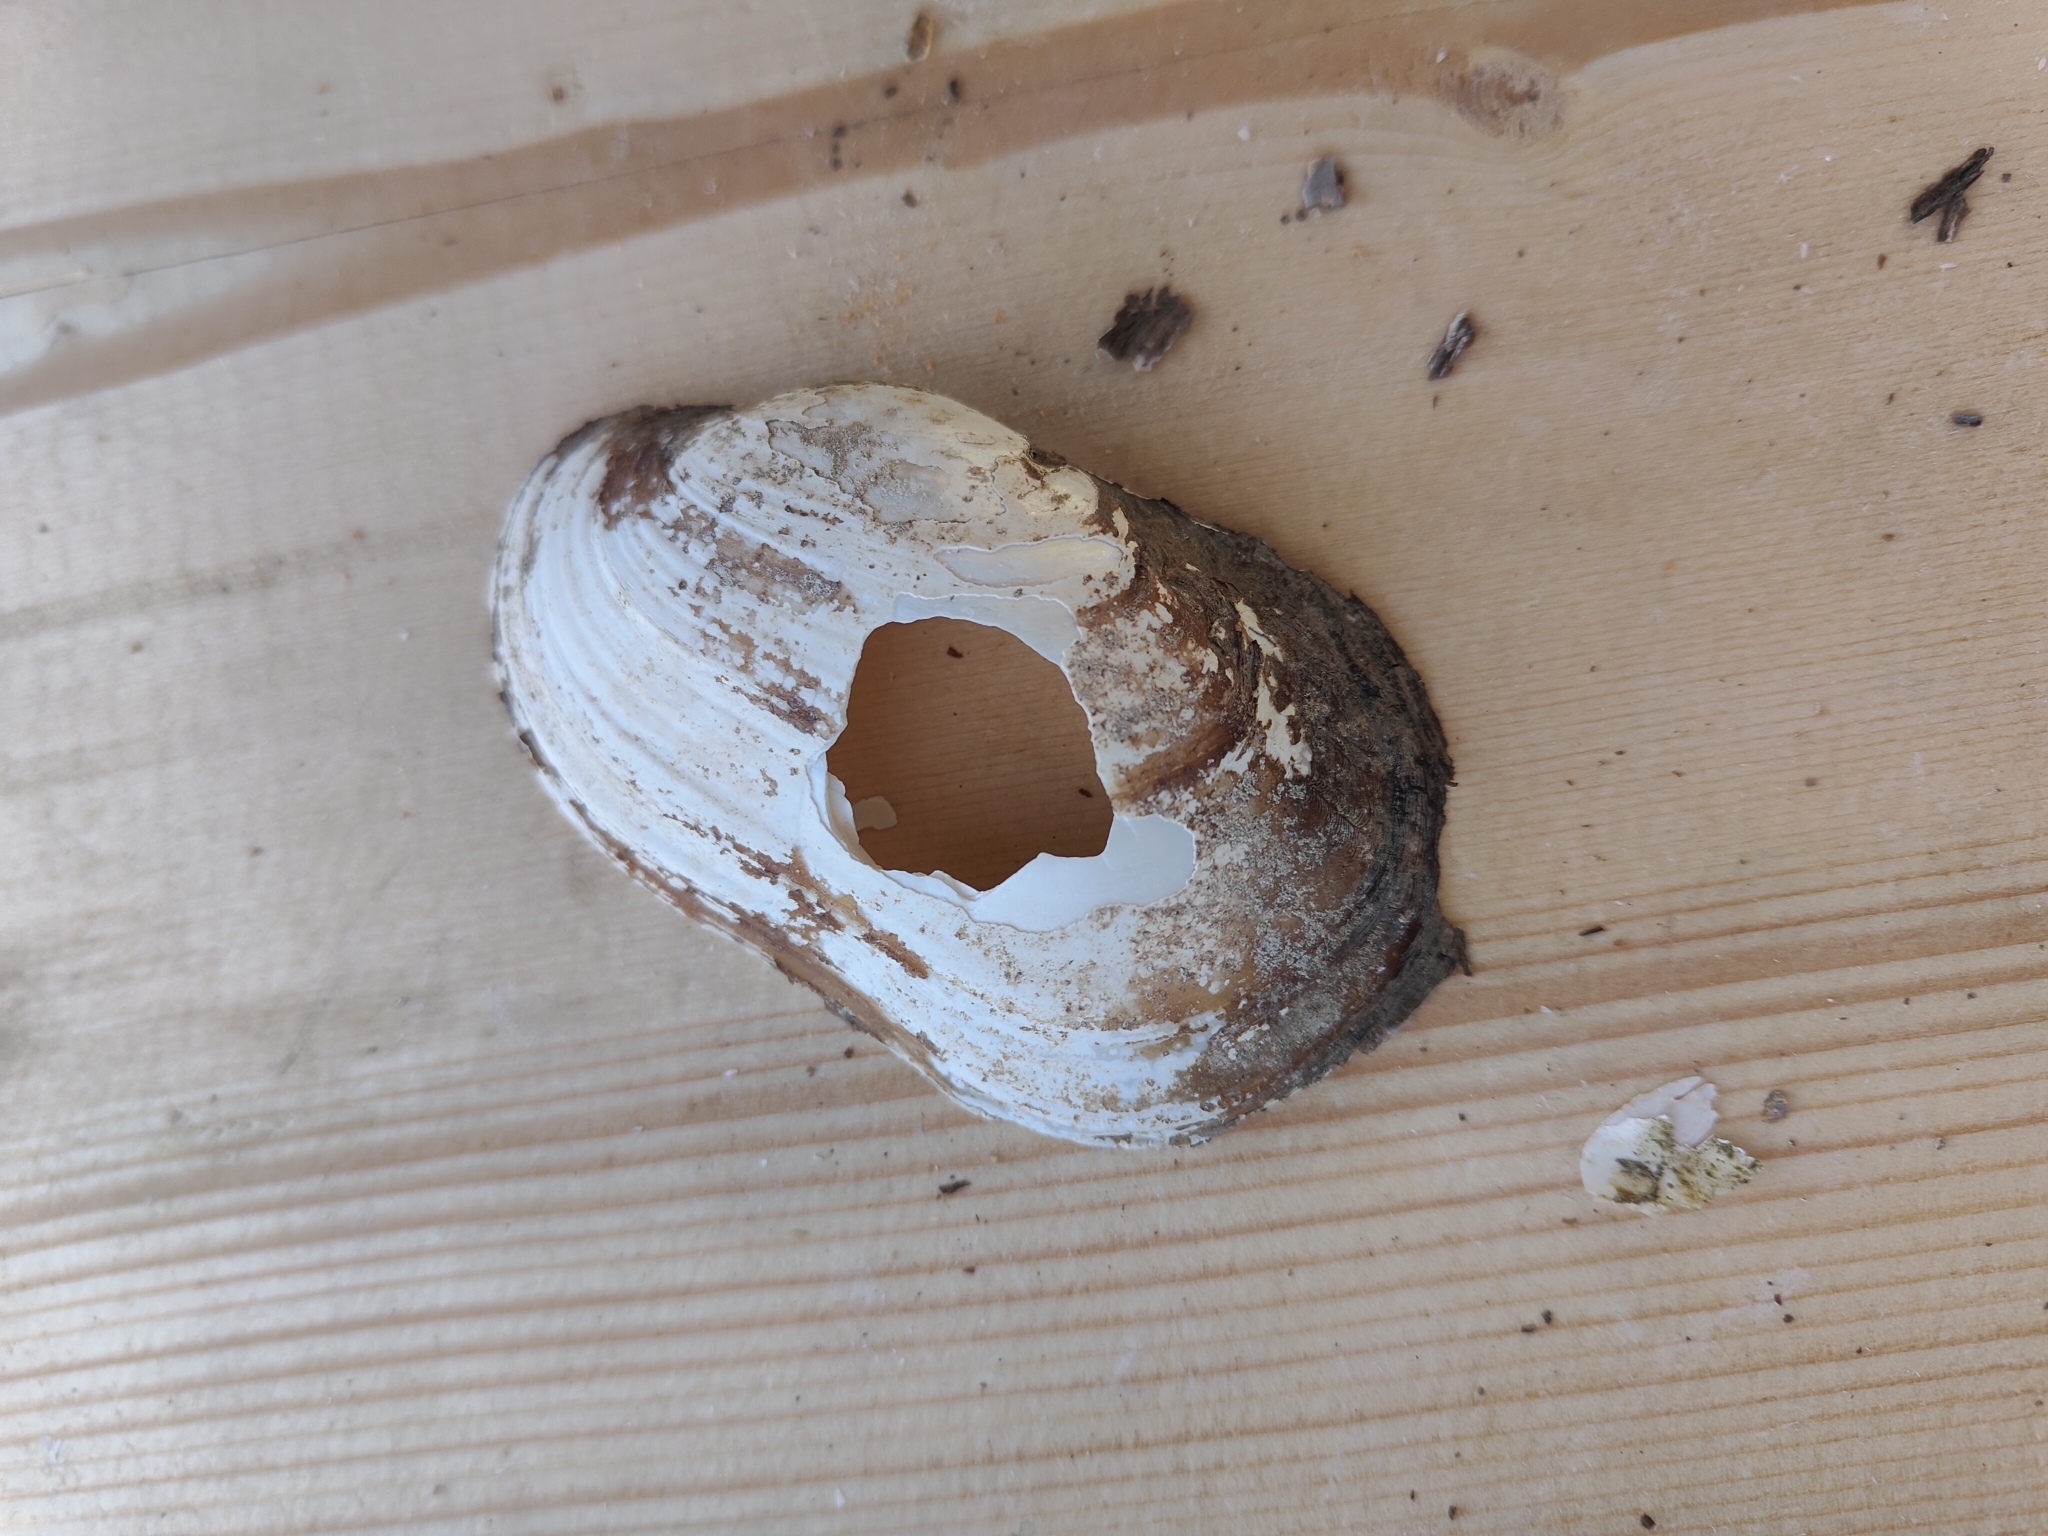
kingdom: Animalia
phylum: Mollusca
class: Bivalvia
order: Unionida
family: Unionidae
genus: Lampsilis
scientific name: Lampsilis siliquoidea
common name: Fatmucket
